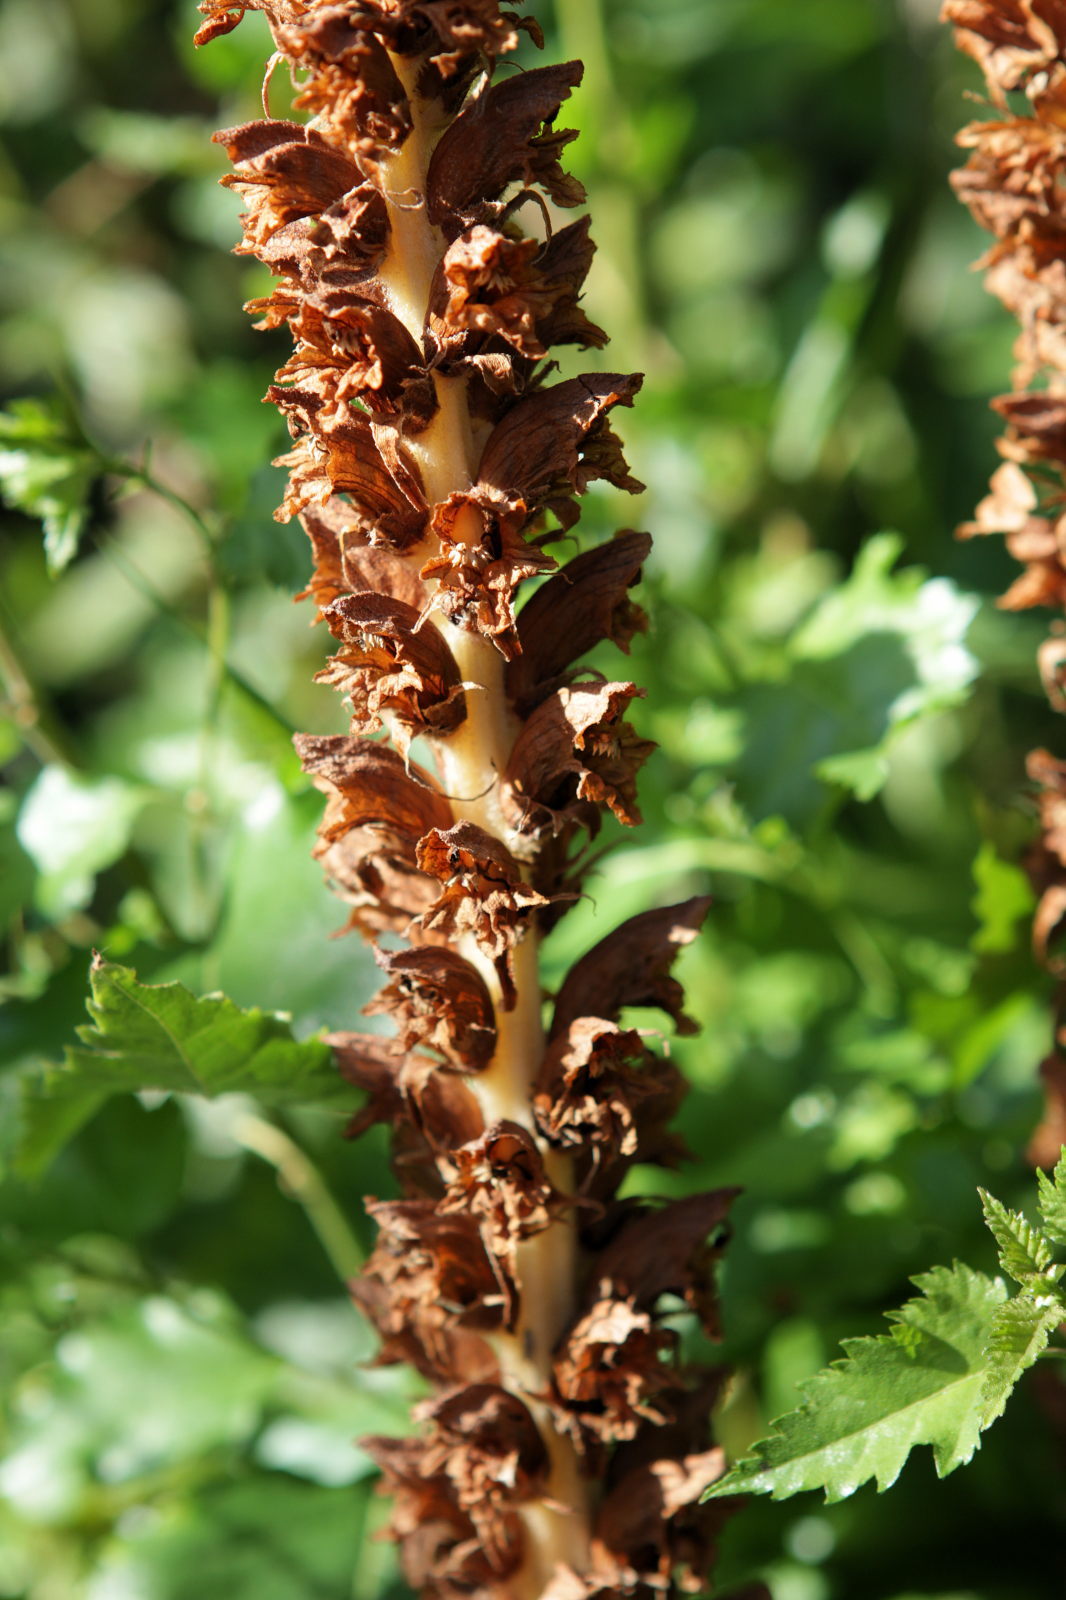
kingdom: Plantae
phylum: Tracheophyta
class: Magnoliopsida
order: Lamiales
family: Orobanchaceae
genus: Orobanche
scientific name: Orobanche rapum-genistae
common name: Greater broomrape
